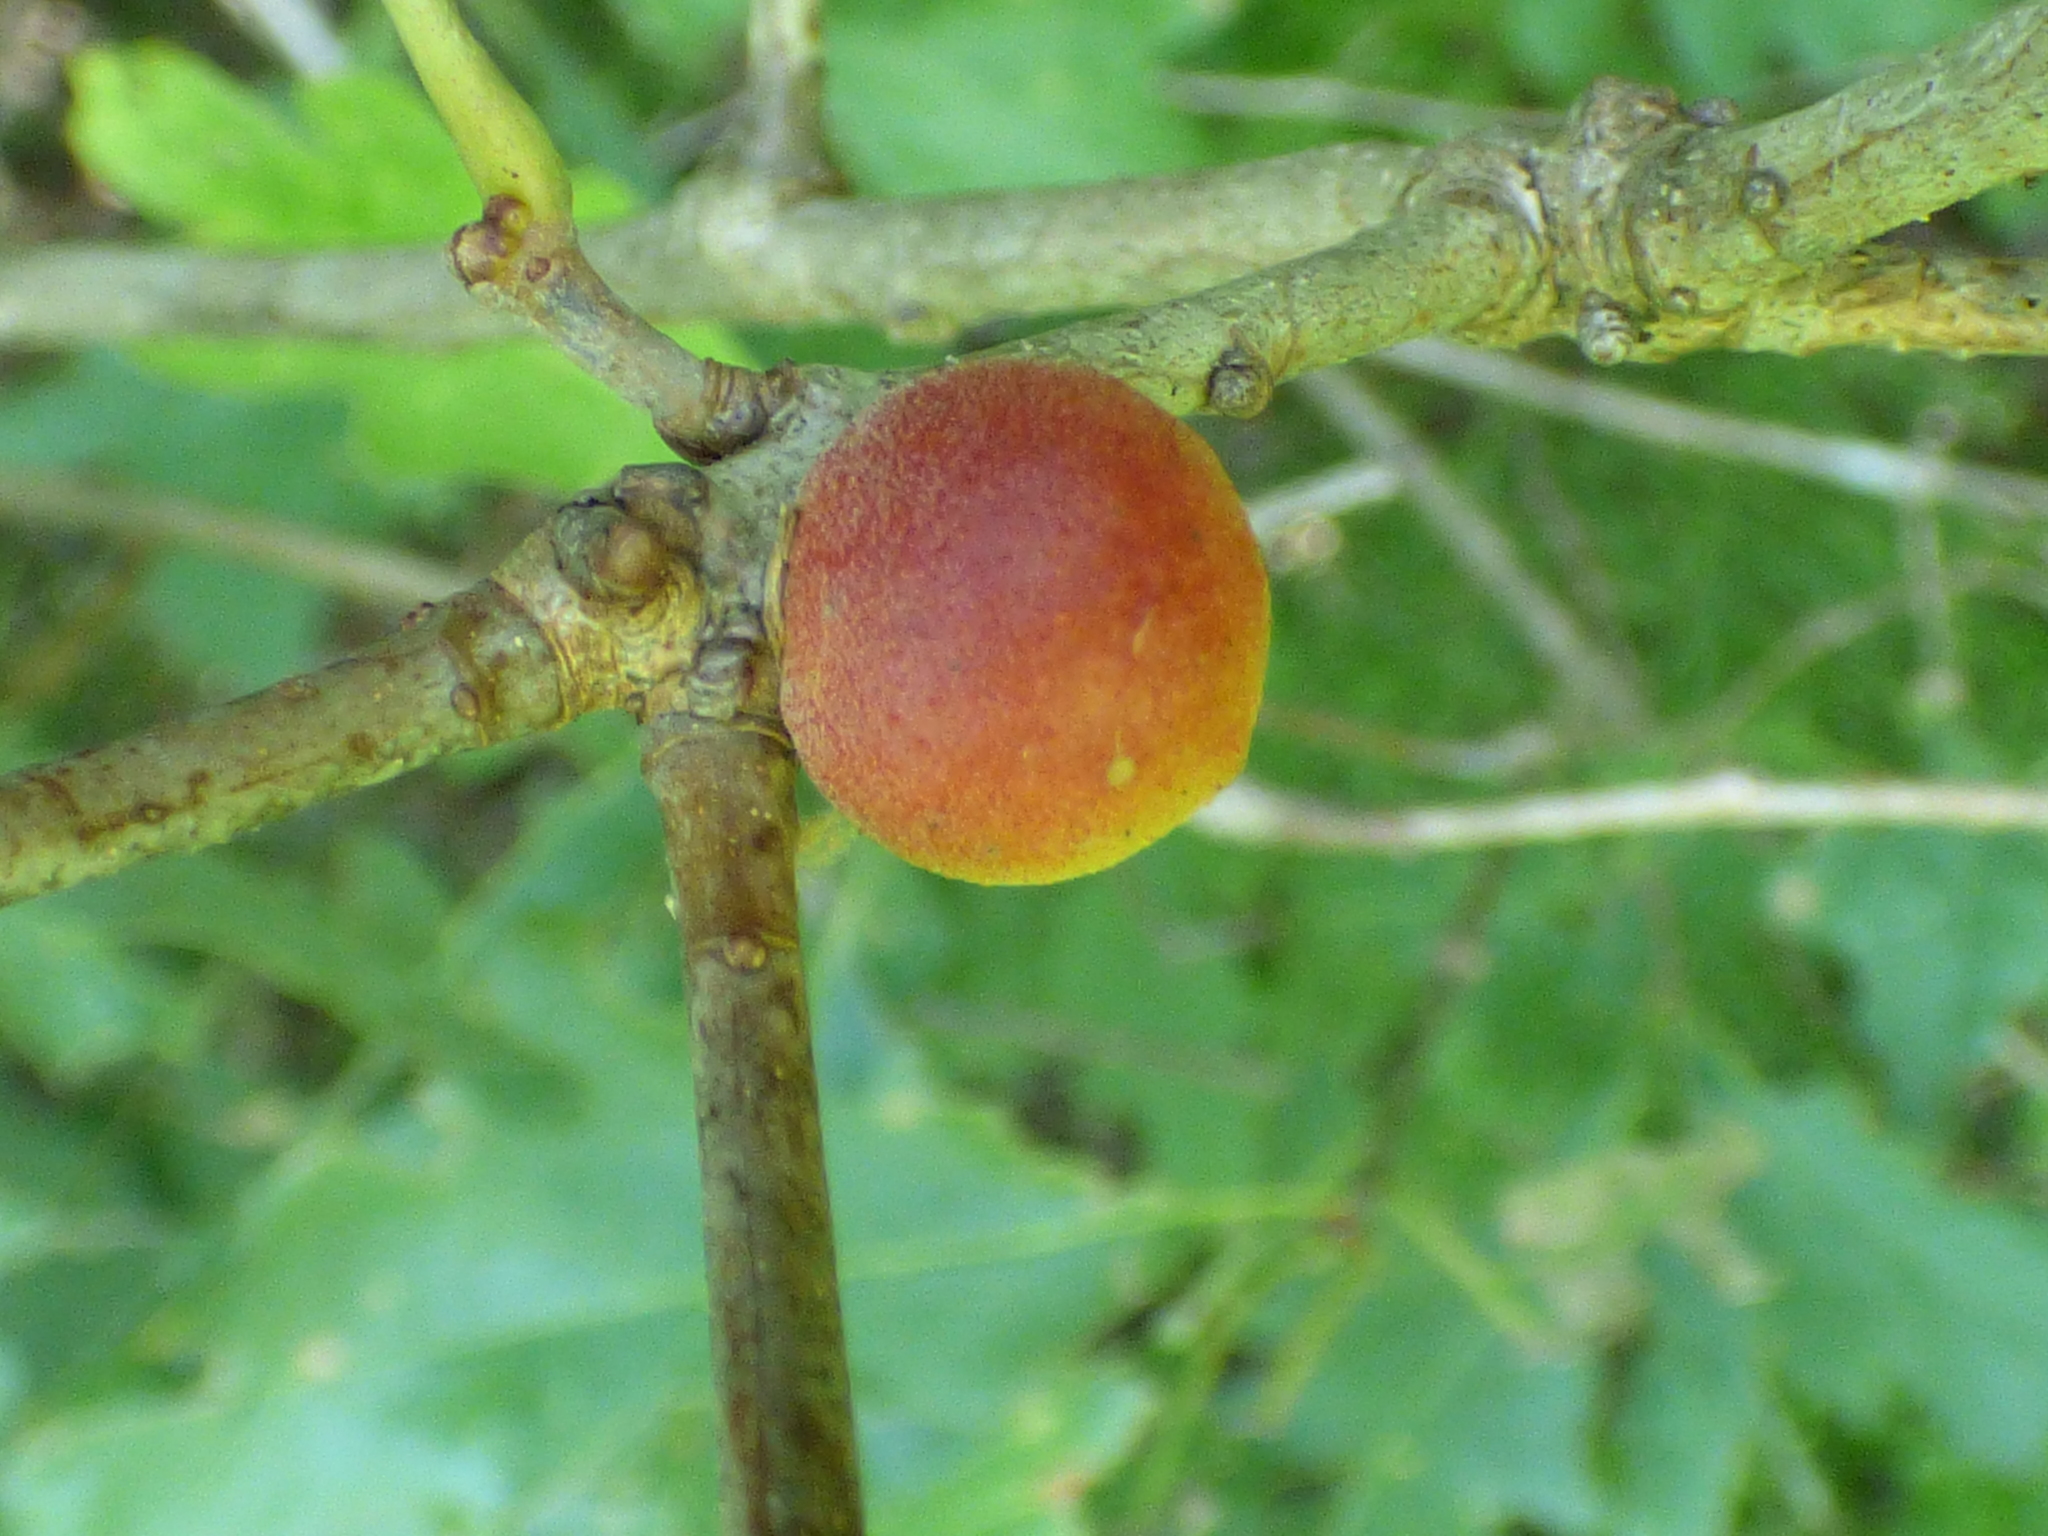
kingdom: Animalia
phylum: Arthropoda
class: Insecta
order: Hymenoptera
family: Cynipidae
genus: Disholcaspis
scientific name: Disholcaspis quercusglobulus
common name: Round bullet gall wasp
